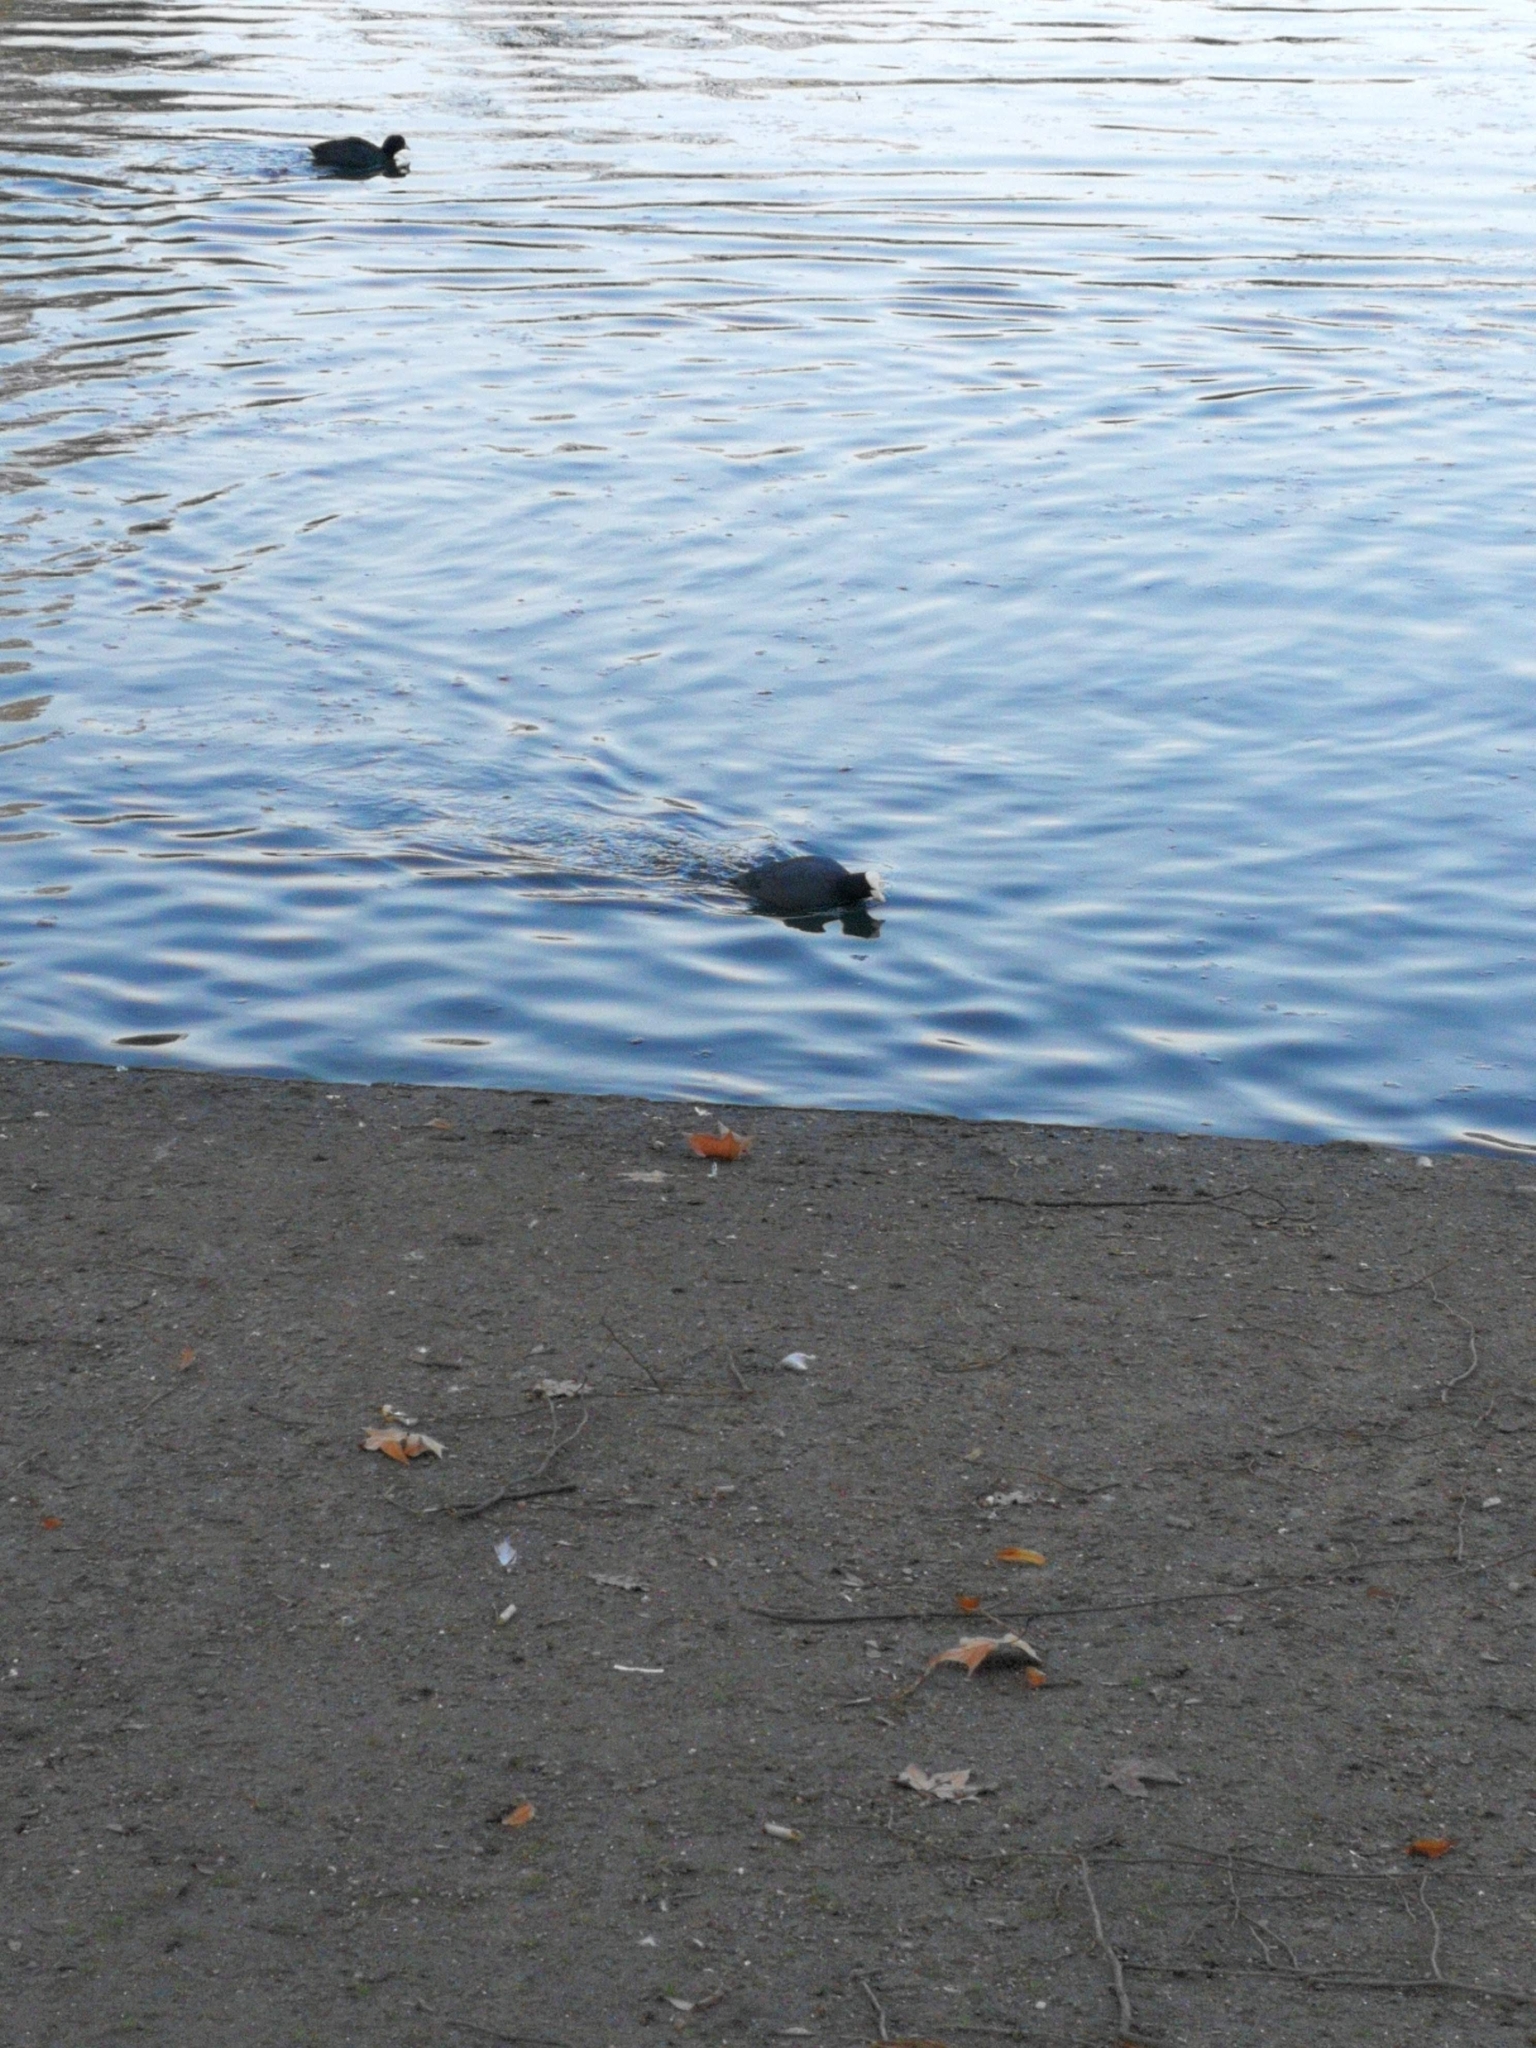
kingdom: Animalia
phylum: Chordata
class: Aves
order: Gruiformes
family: Rallidae
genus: Fulica
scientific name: Fulica atra
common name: Eurasian coot
